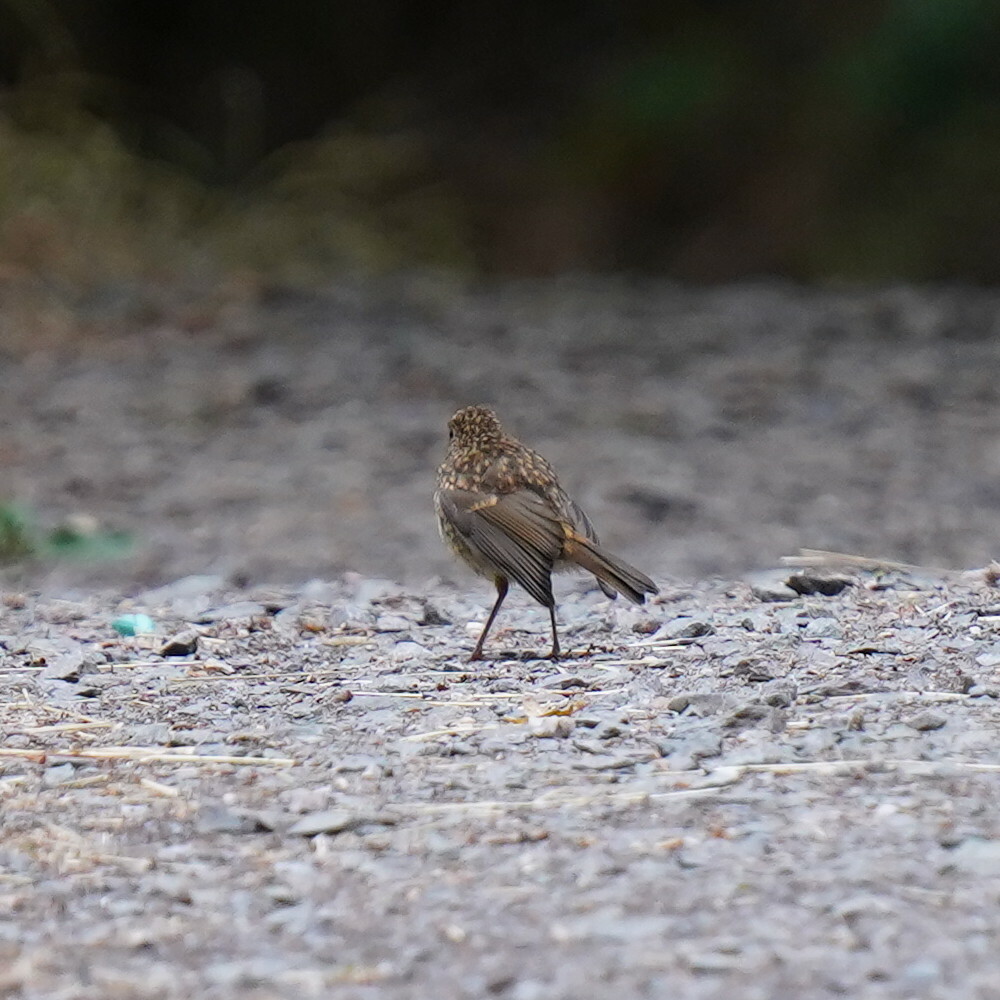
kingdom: Animalia
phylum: Chordata
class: Aves
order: Passeriformes
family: Muscicapidae
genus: Erithacus
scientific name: Erithacus rubecula
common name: European robin
